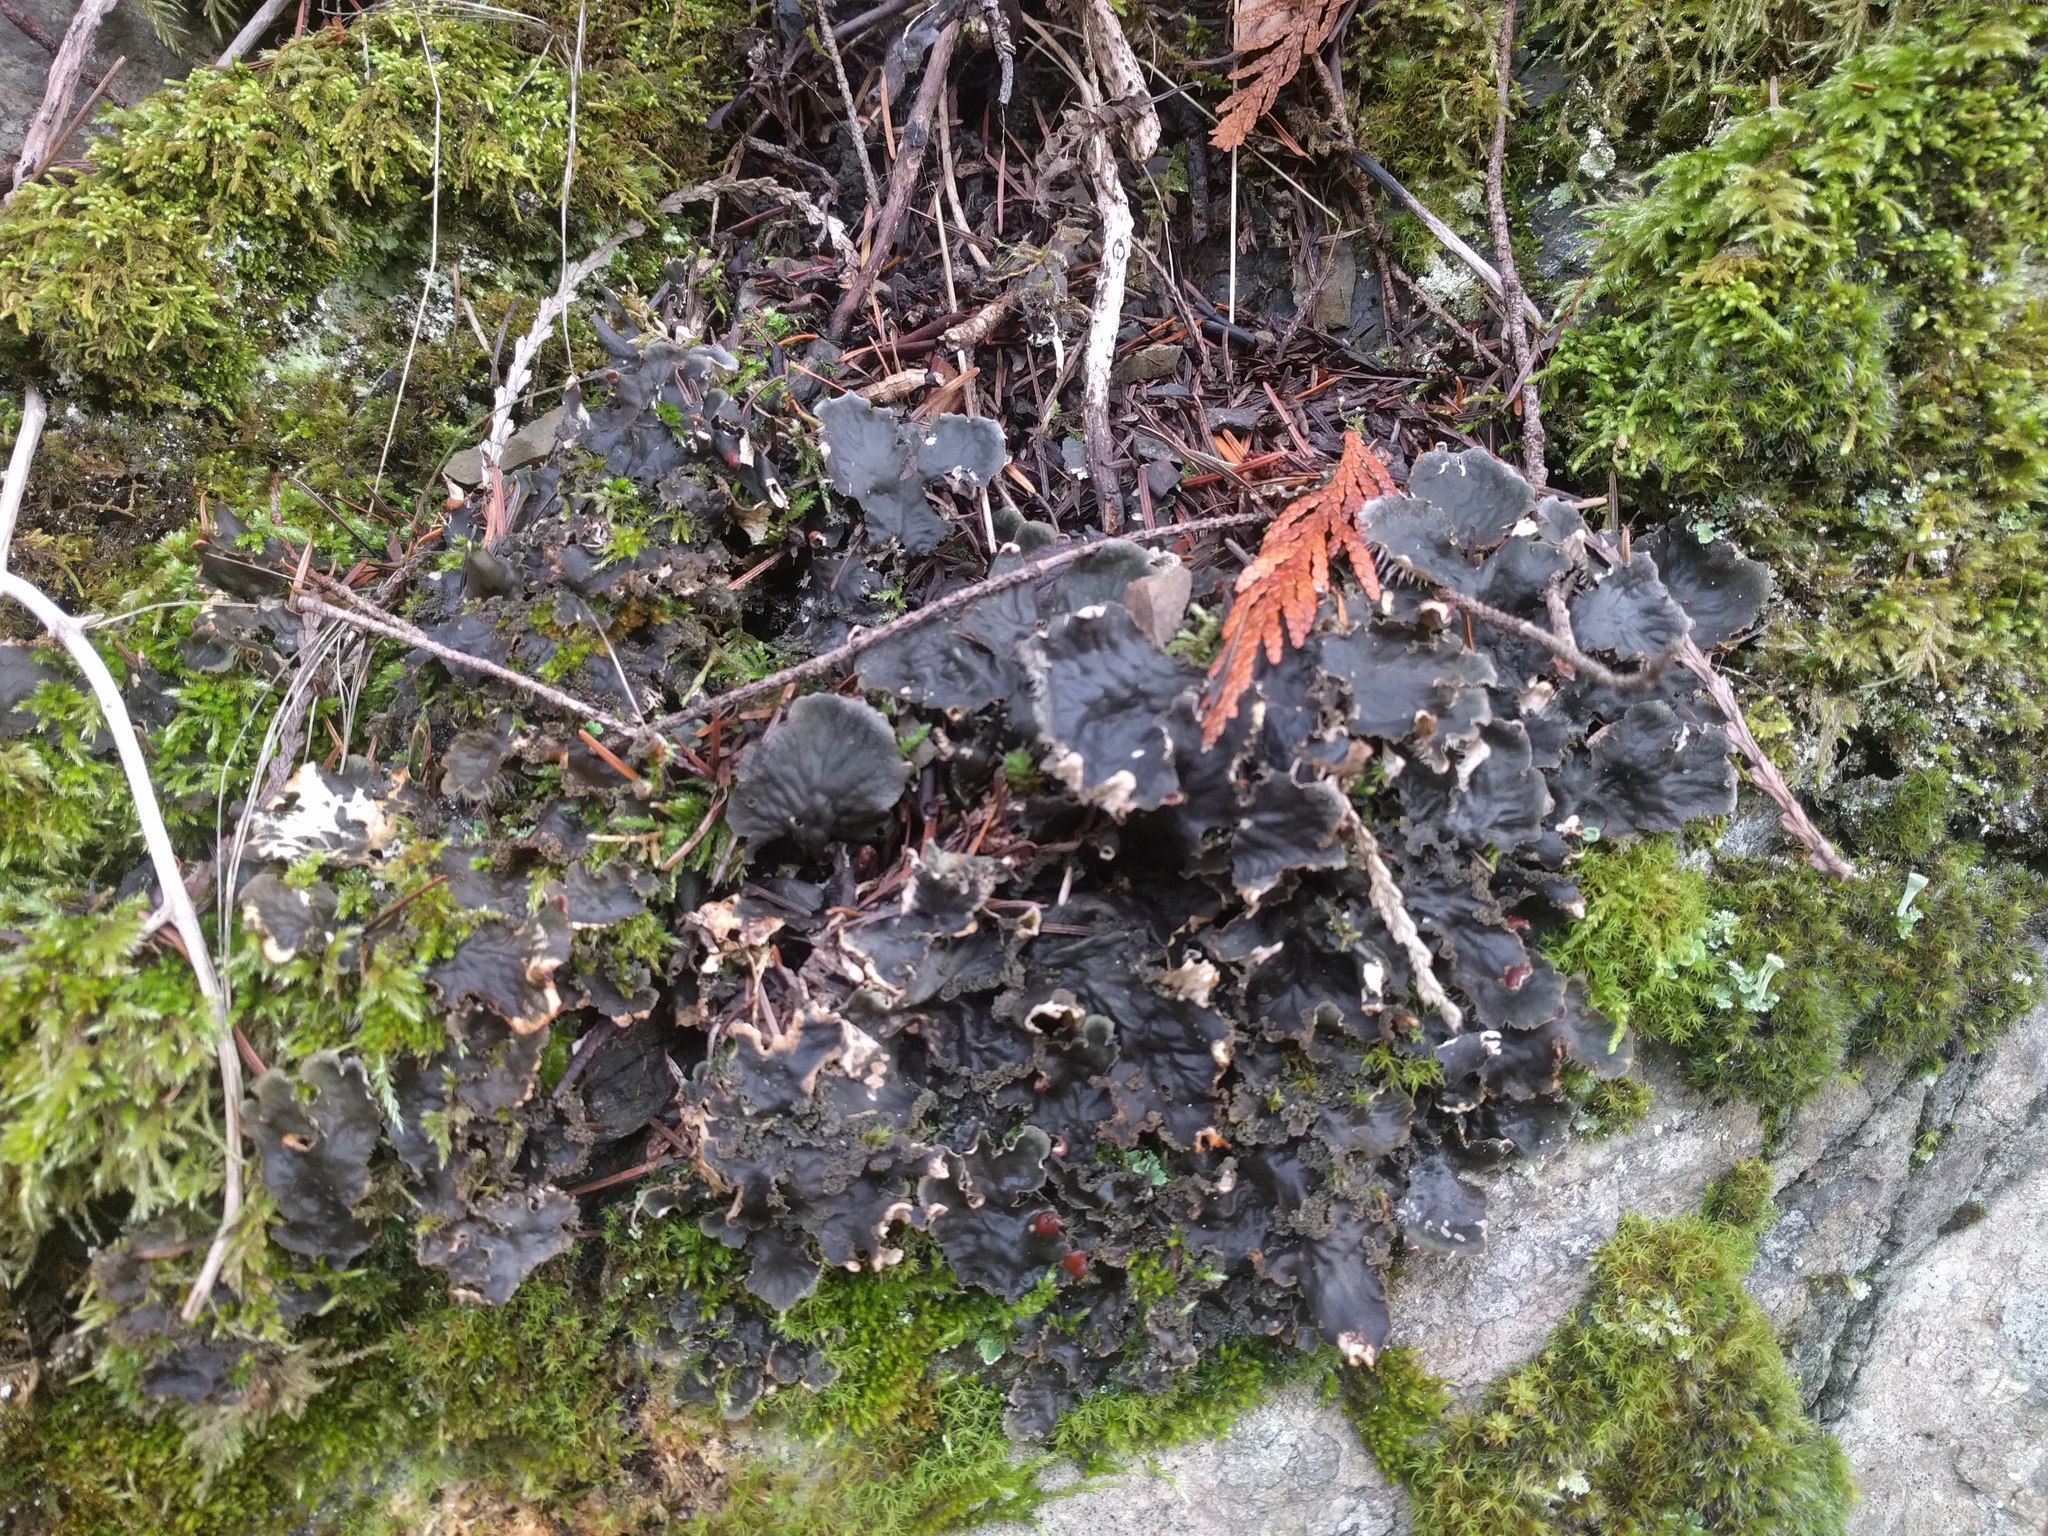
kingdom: Fungi
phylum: Ascomycota
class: Lecanoromycetes
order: Peltigerales
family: Peltigeraceae
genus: Peltigera
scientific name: Peltigera membranacea
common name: Membranous pelt lichen
